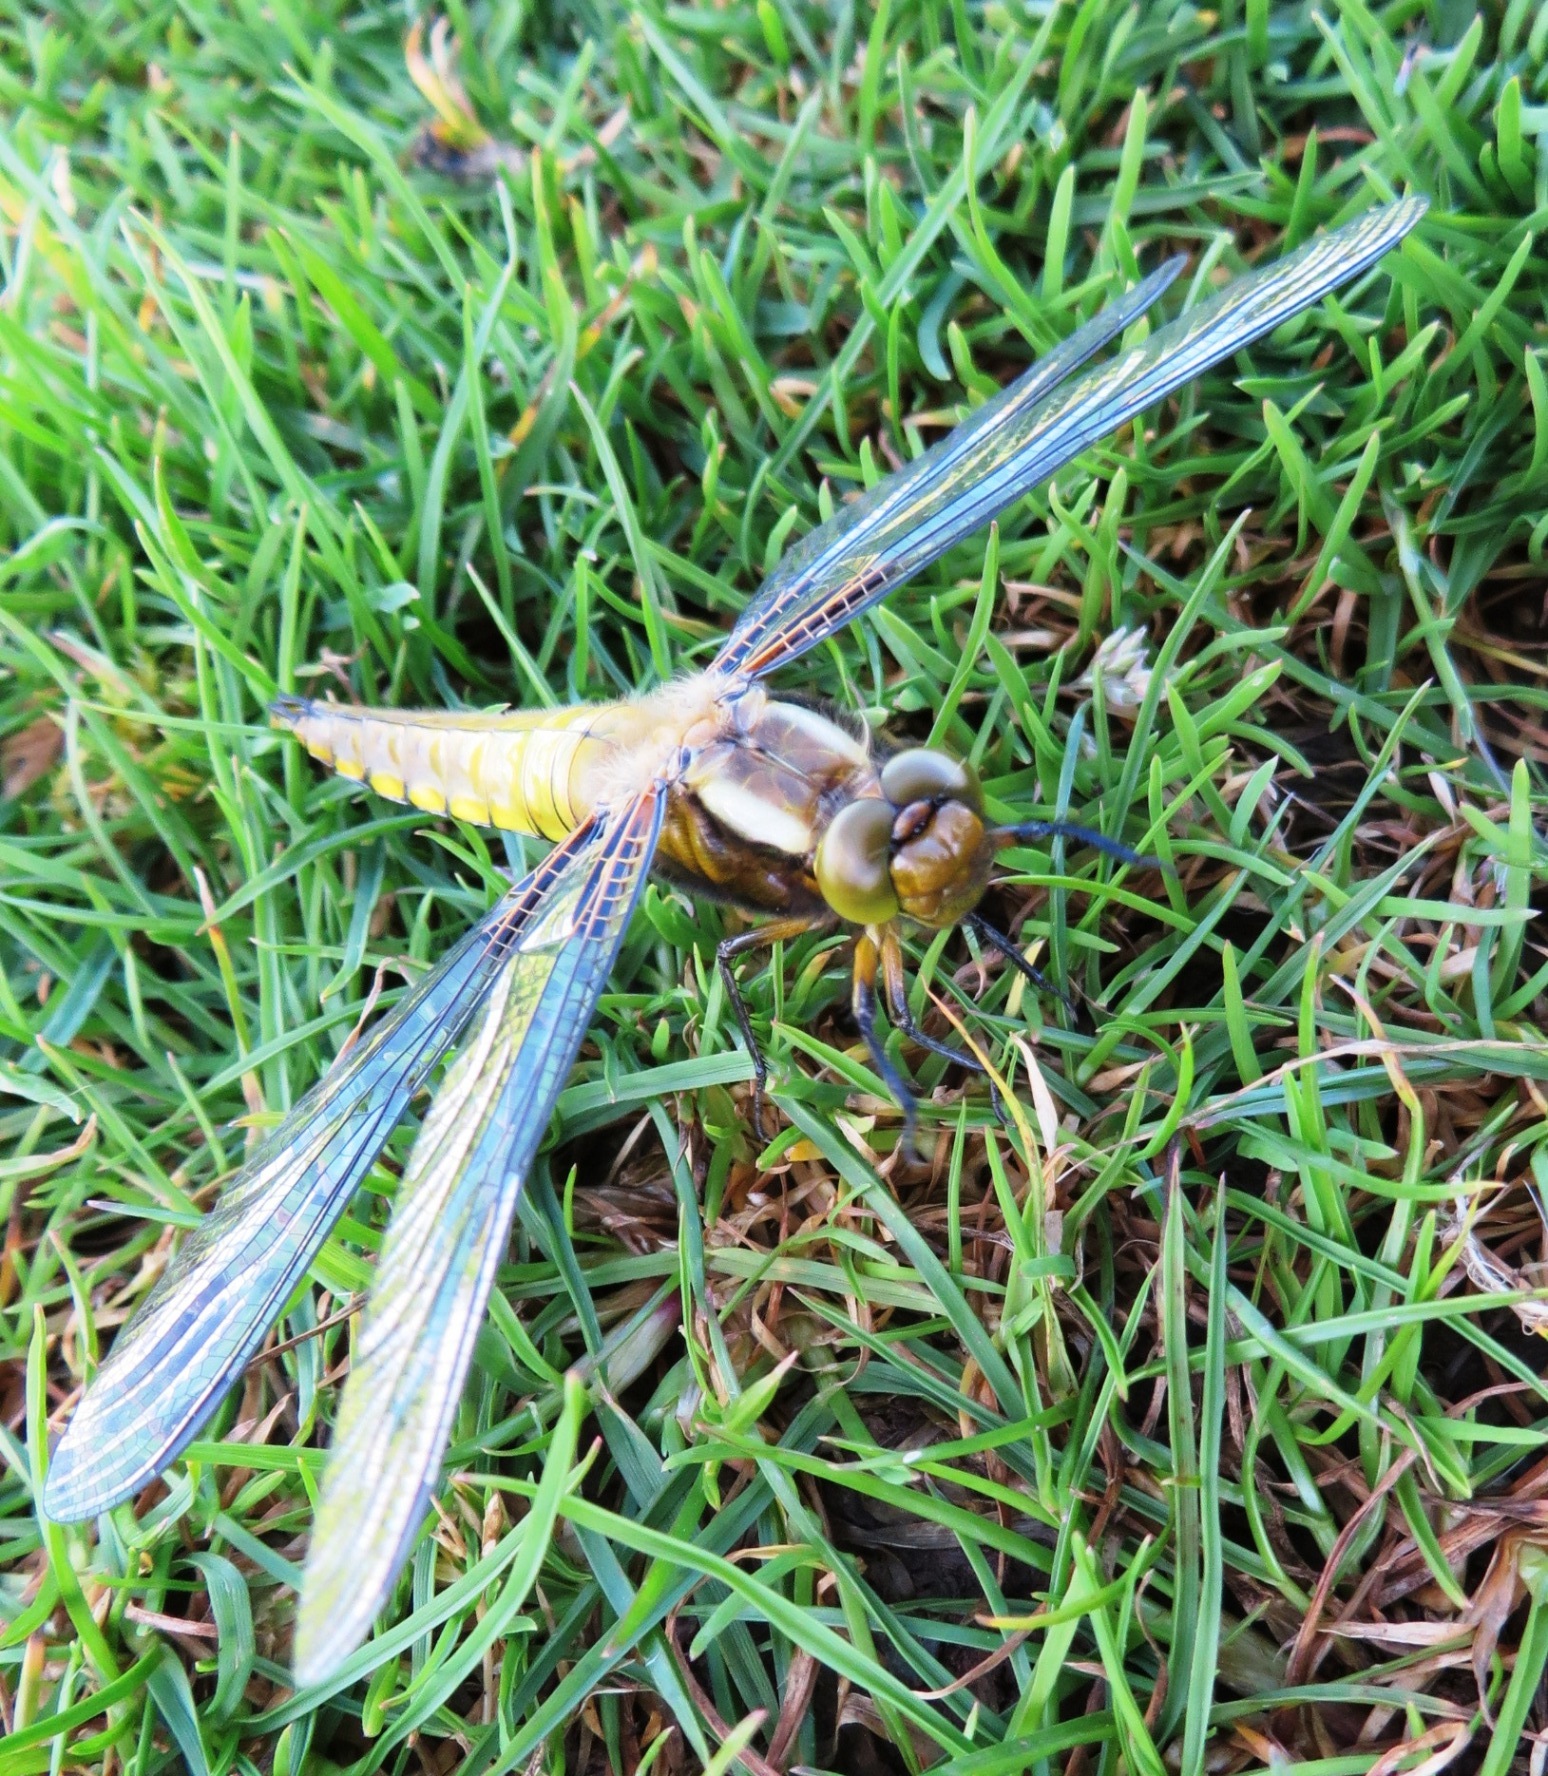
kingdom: Animalia
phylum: Arthropoda
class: Insecta
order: Odonata
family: Libellulidae
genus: Libellula
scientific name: Libellula depressa
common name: Broad-bodied chaser
